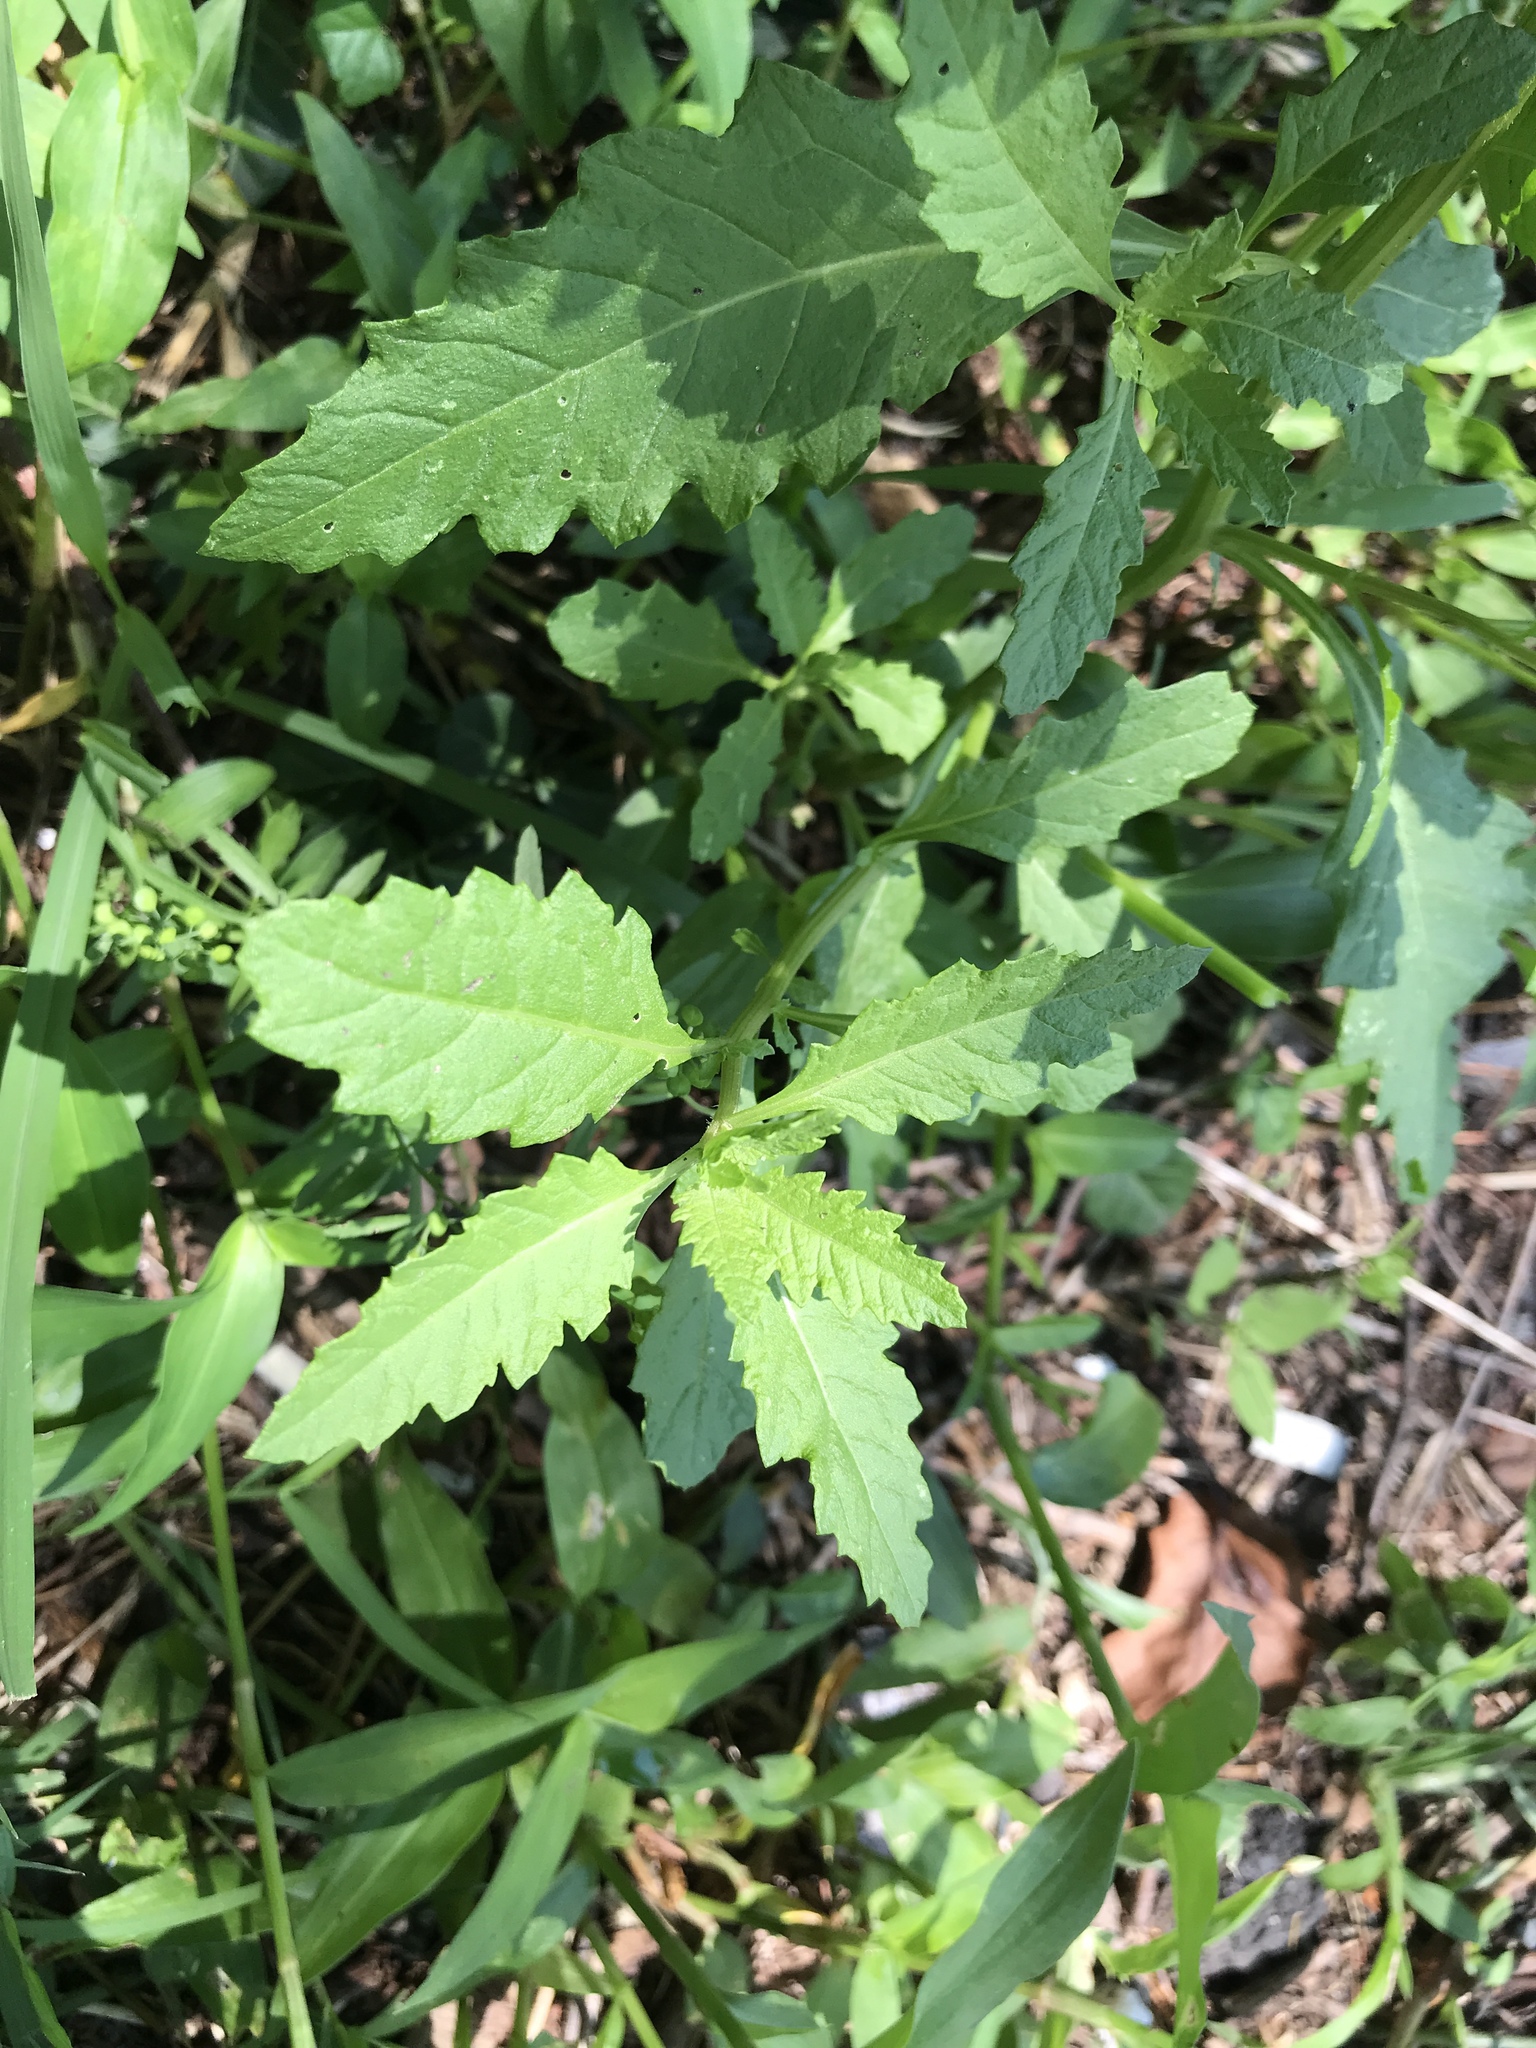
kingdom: Plantae
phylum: Tracheophyta
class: Magnoliopsida
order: Caryophyllales
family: Amaranthaceae
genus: Dysphania
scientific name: Dysphania ambrosioides
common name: Wormseed
